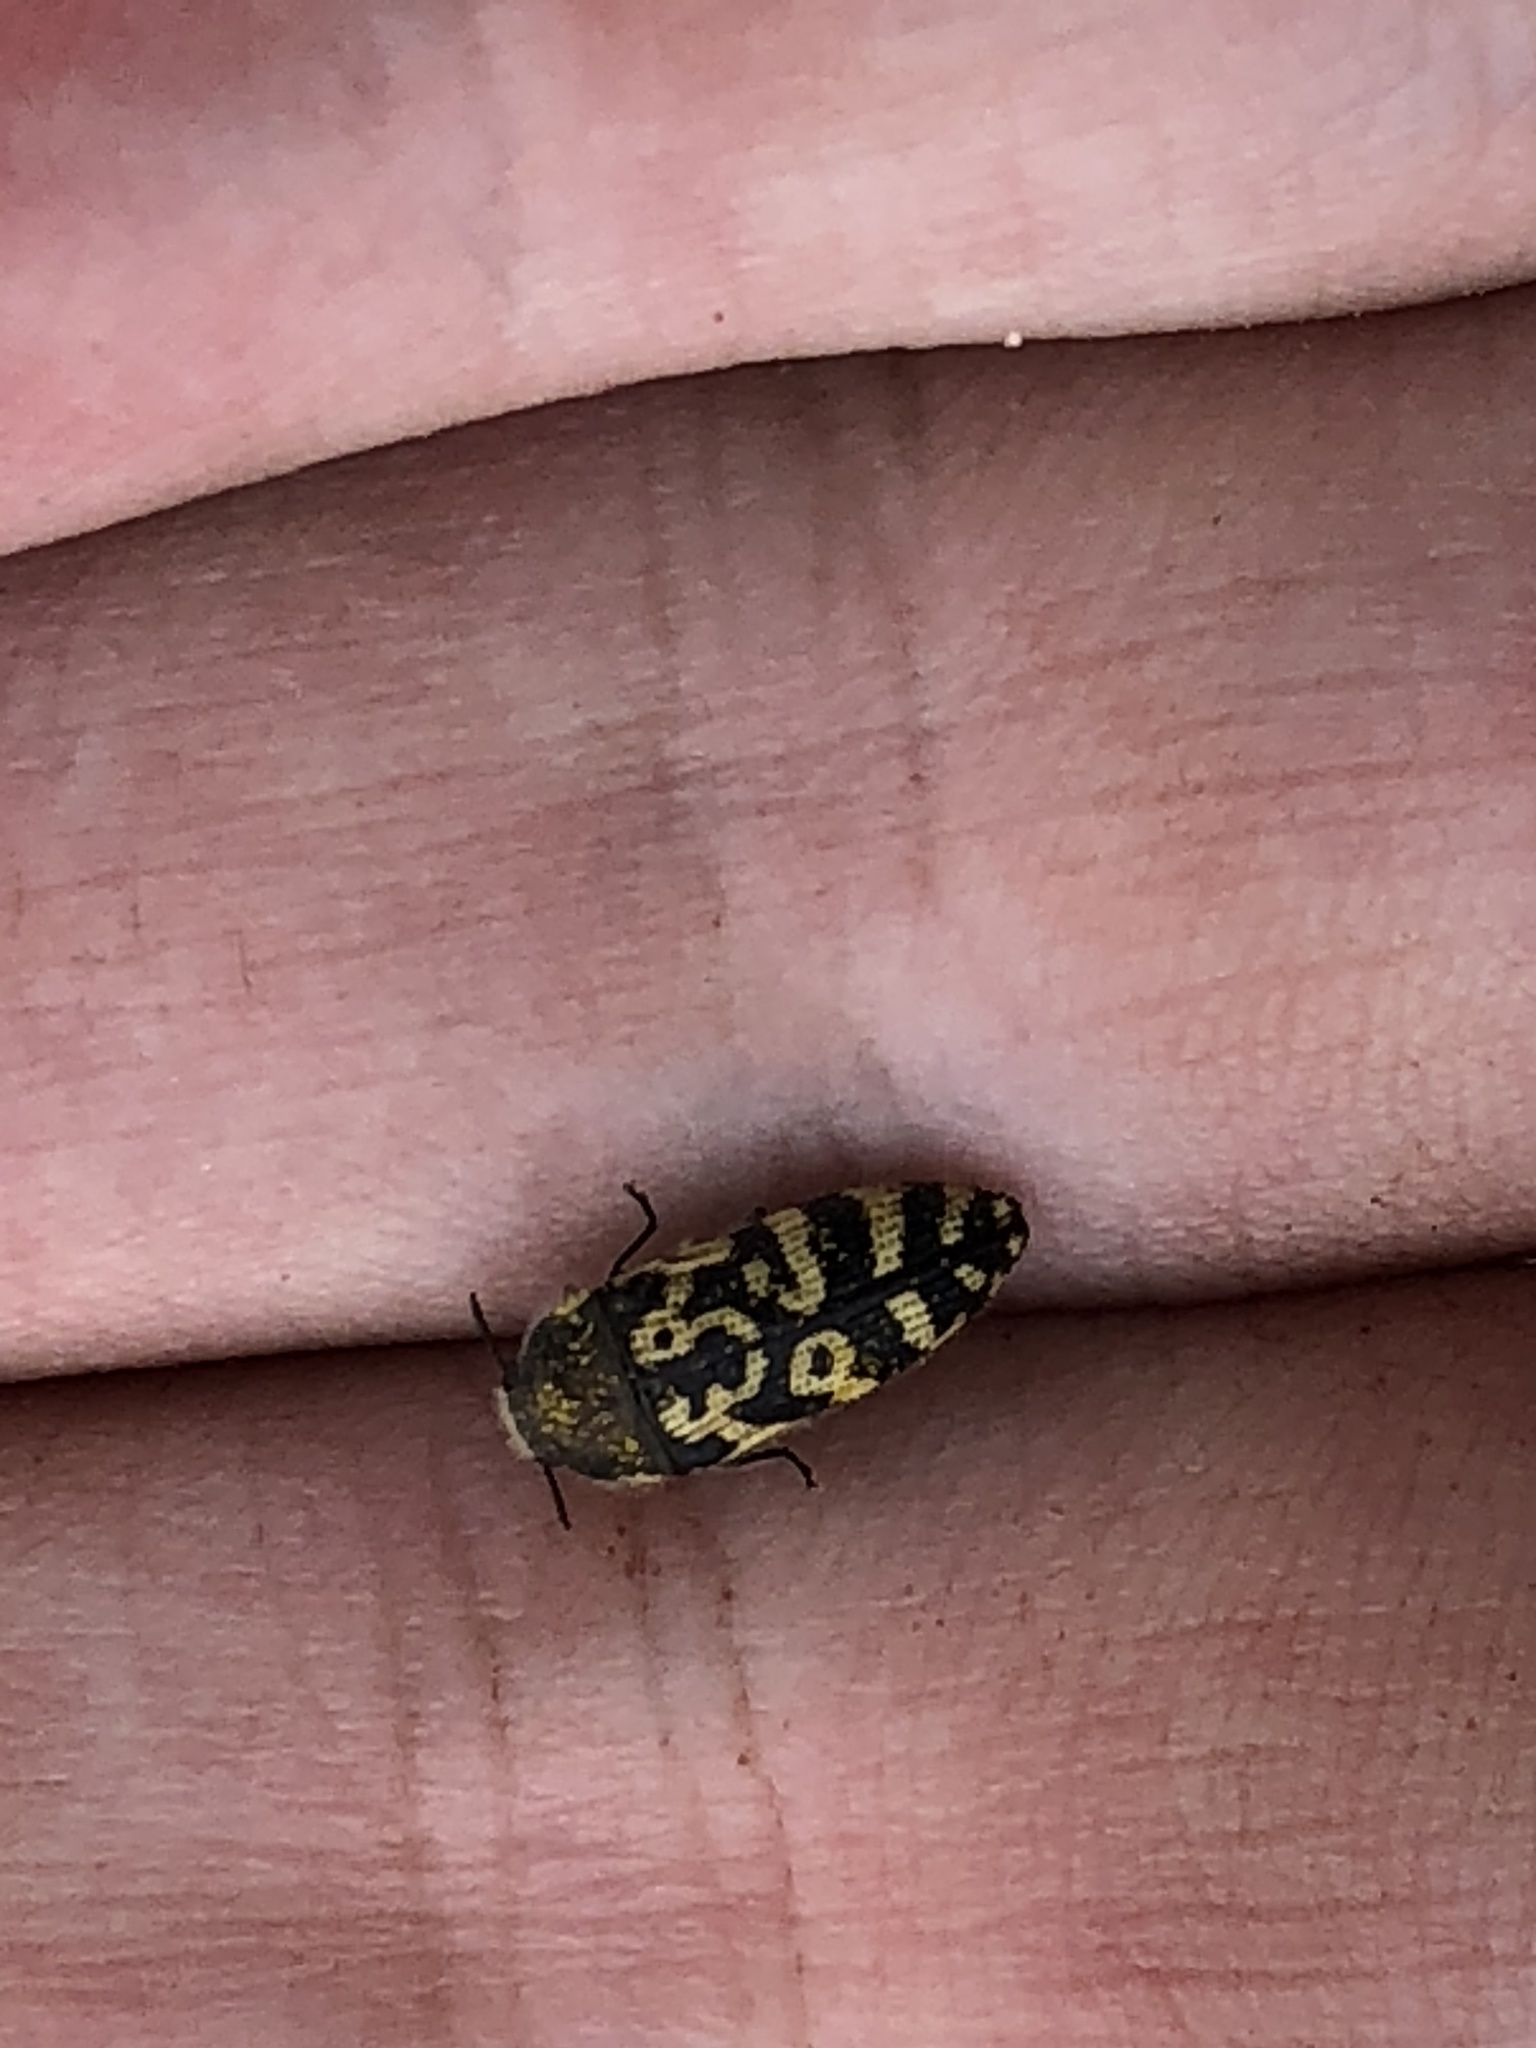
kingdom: Animalia
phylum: Arthropoda
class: Insecta
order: Coleoptera
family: Buprestidae
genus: Acmaeodera
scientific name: Acmaeodera mixta
